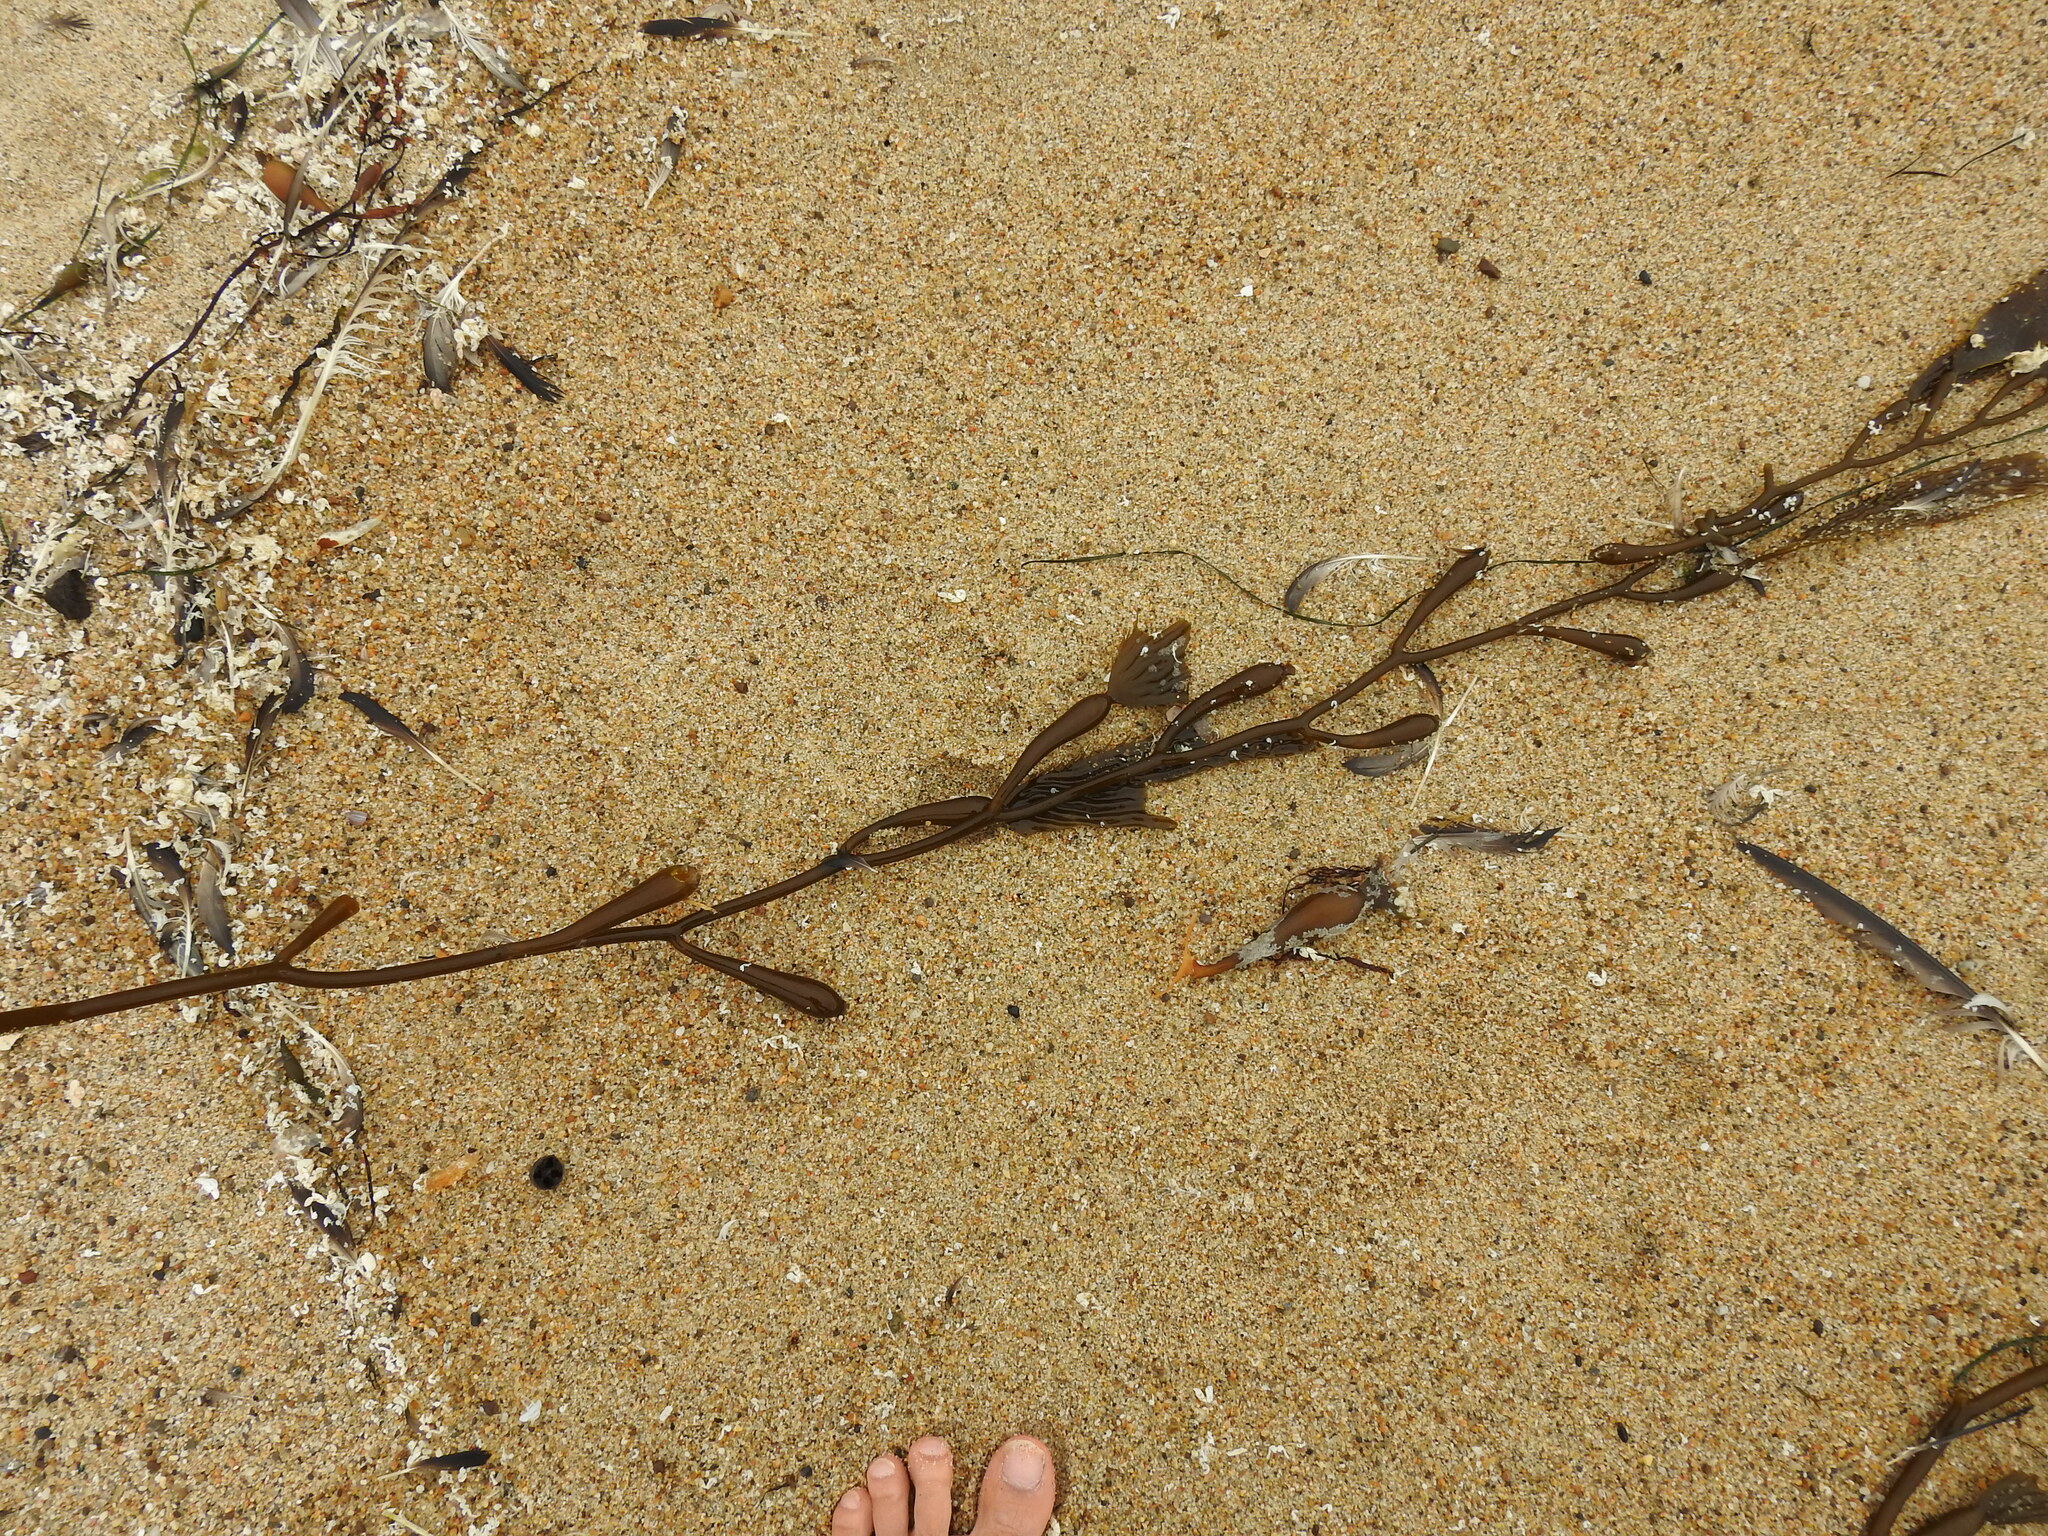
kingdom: Chromista
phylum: Ochrophyta
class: Phaeophyceae
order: Laminariales
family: Laminariaceae
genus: Macrocystis
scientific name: Macrocystis pyrifera
